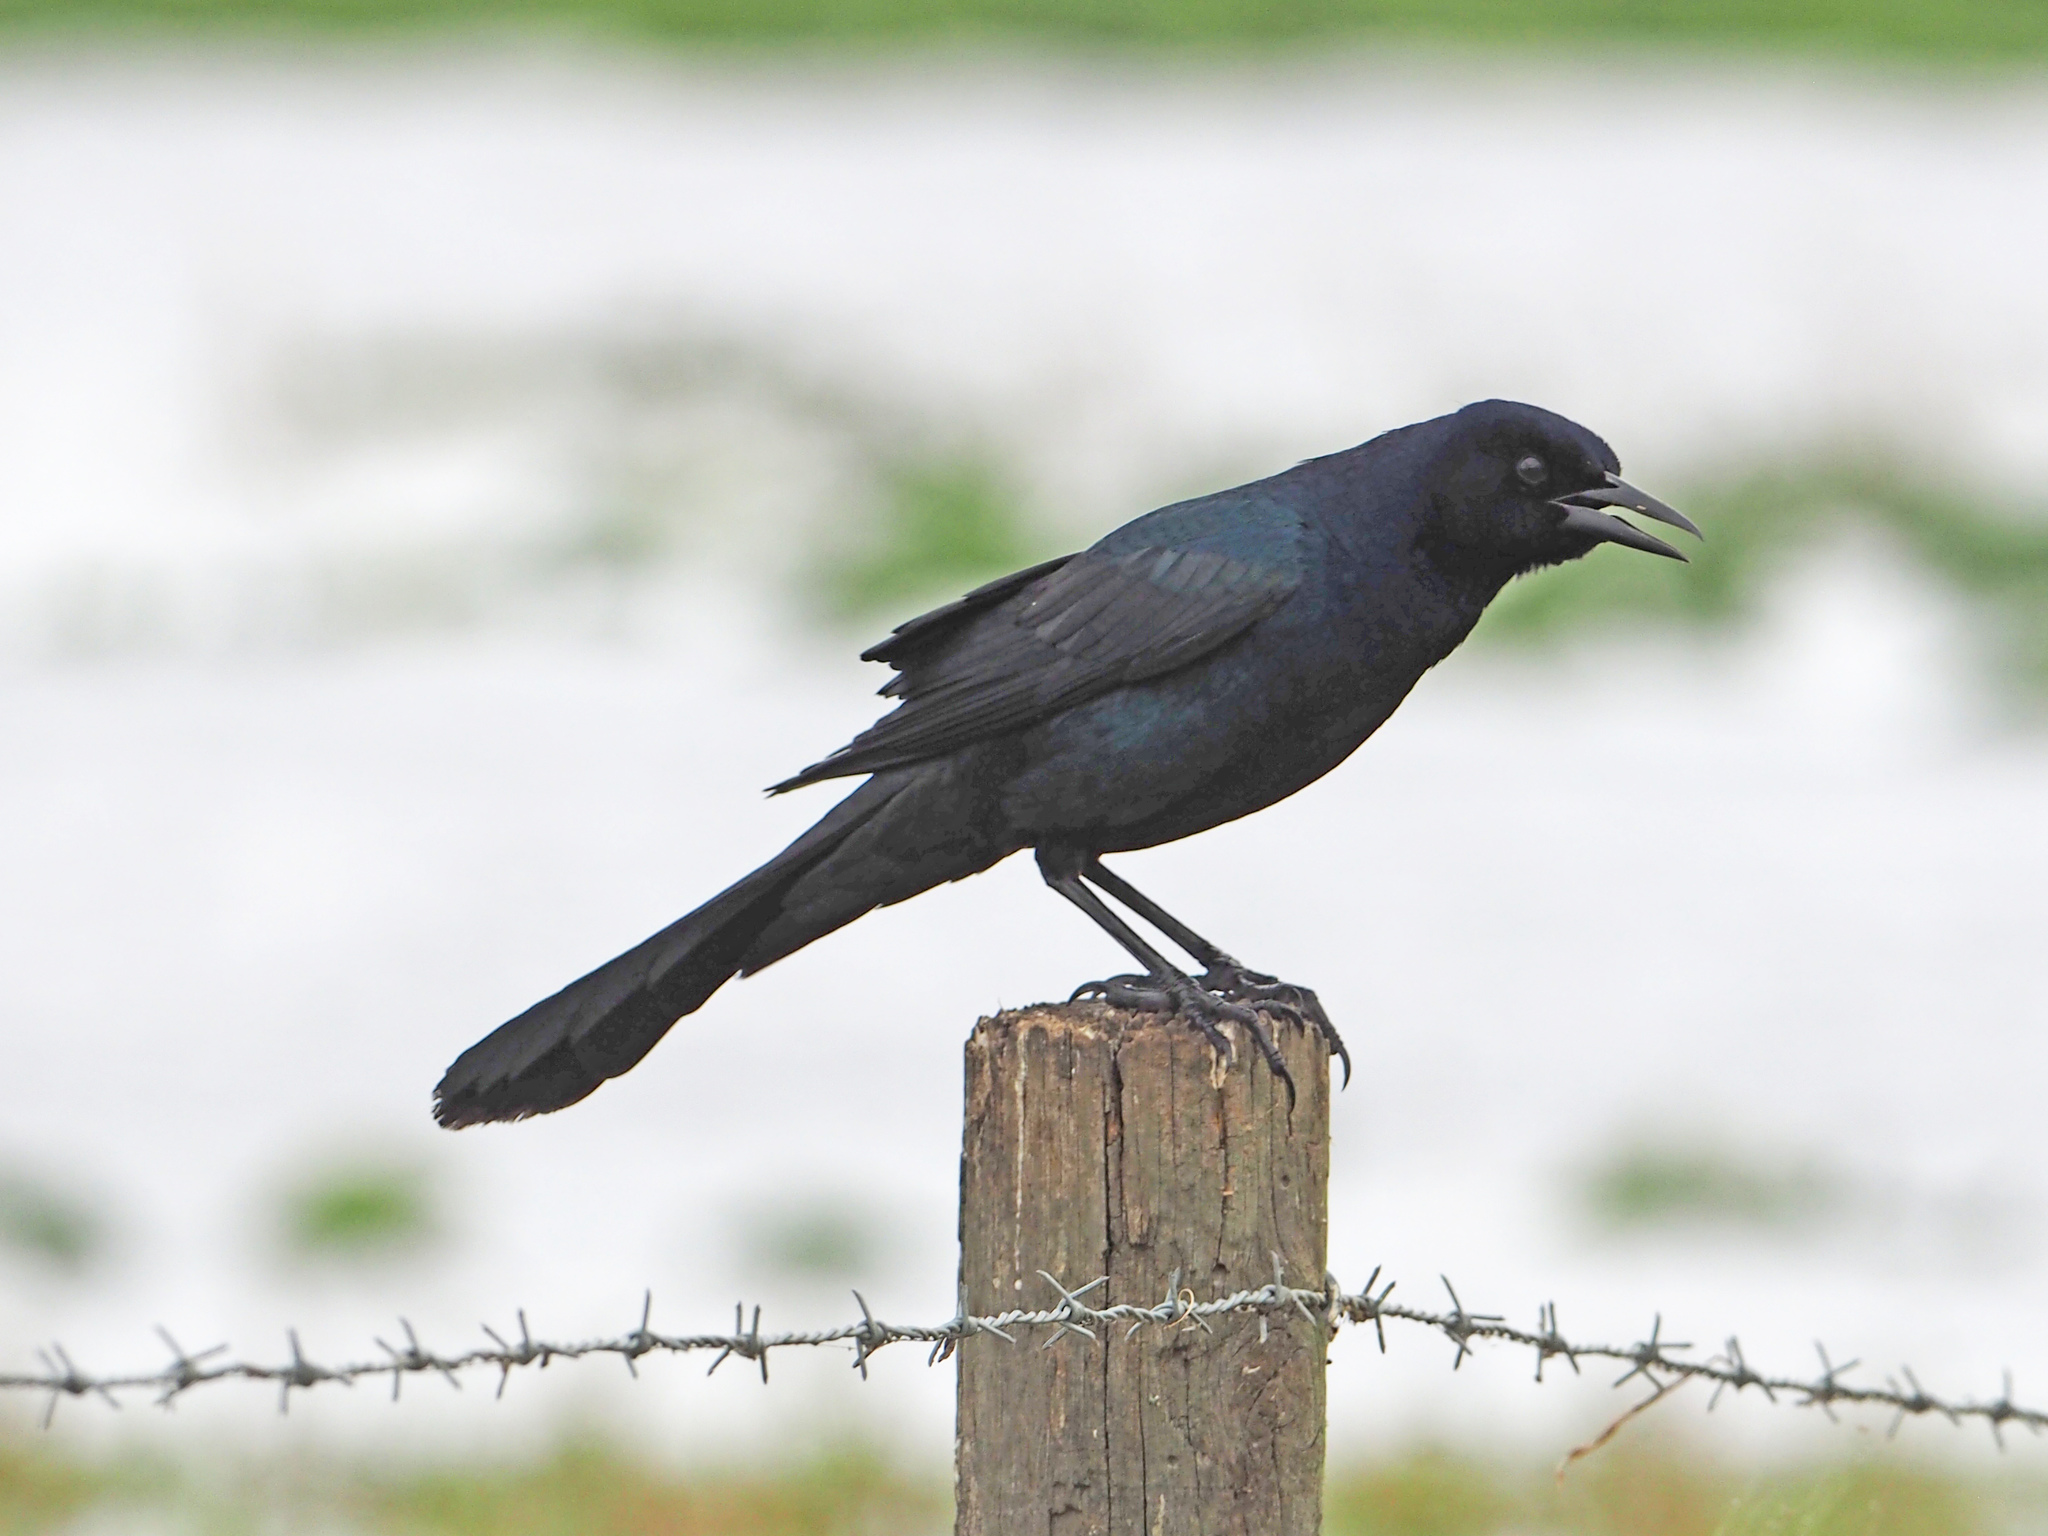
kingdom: Animalia
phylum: Chordata
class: Aves
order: Passeriformes
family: Icteridae
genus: Quiscalus
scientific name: Quiscalus major
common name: Boat-tailed grackle
